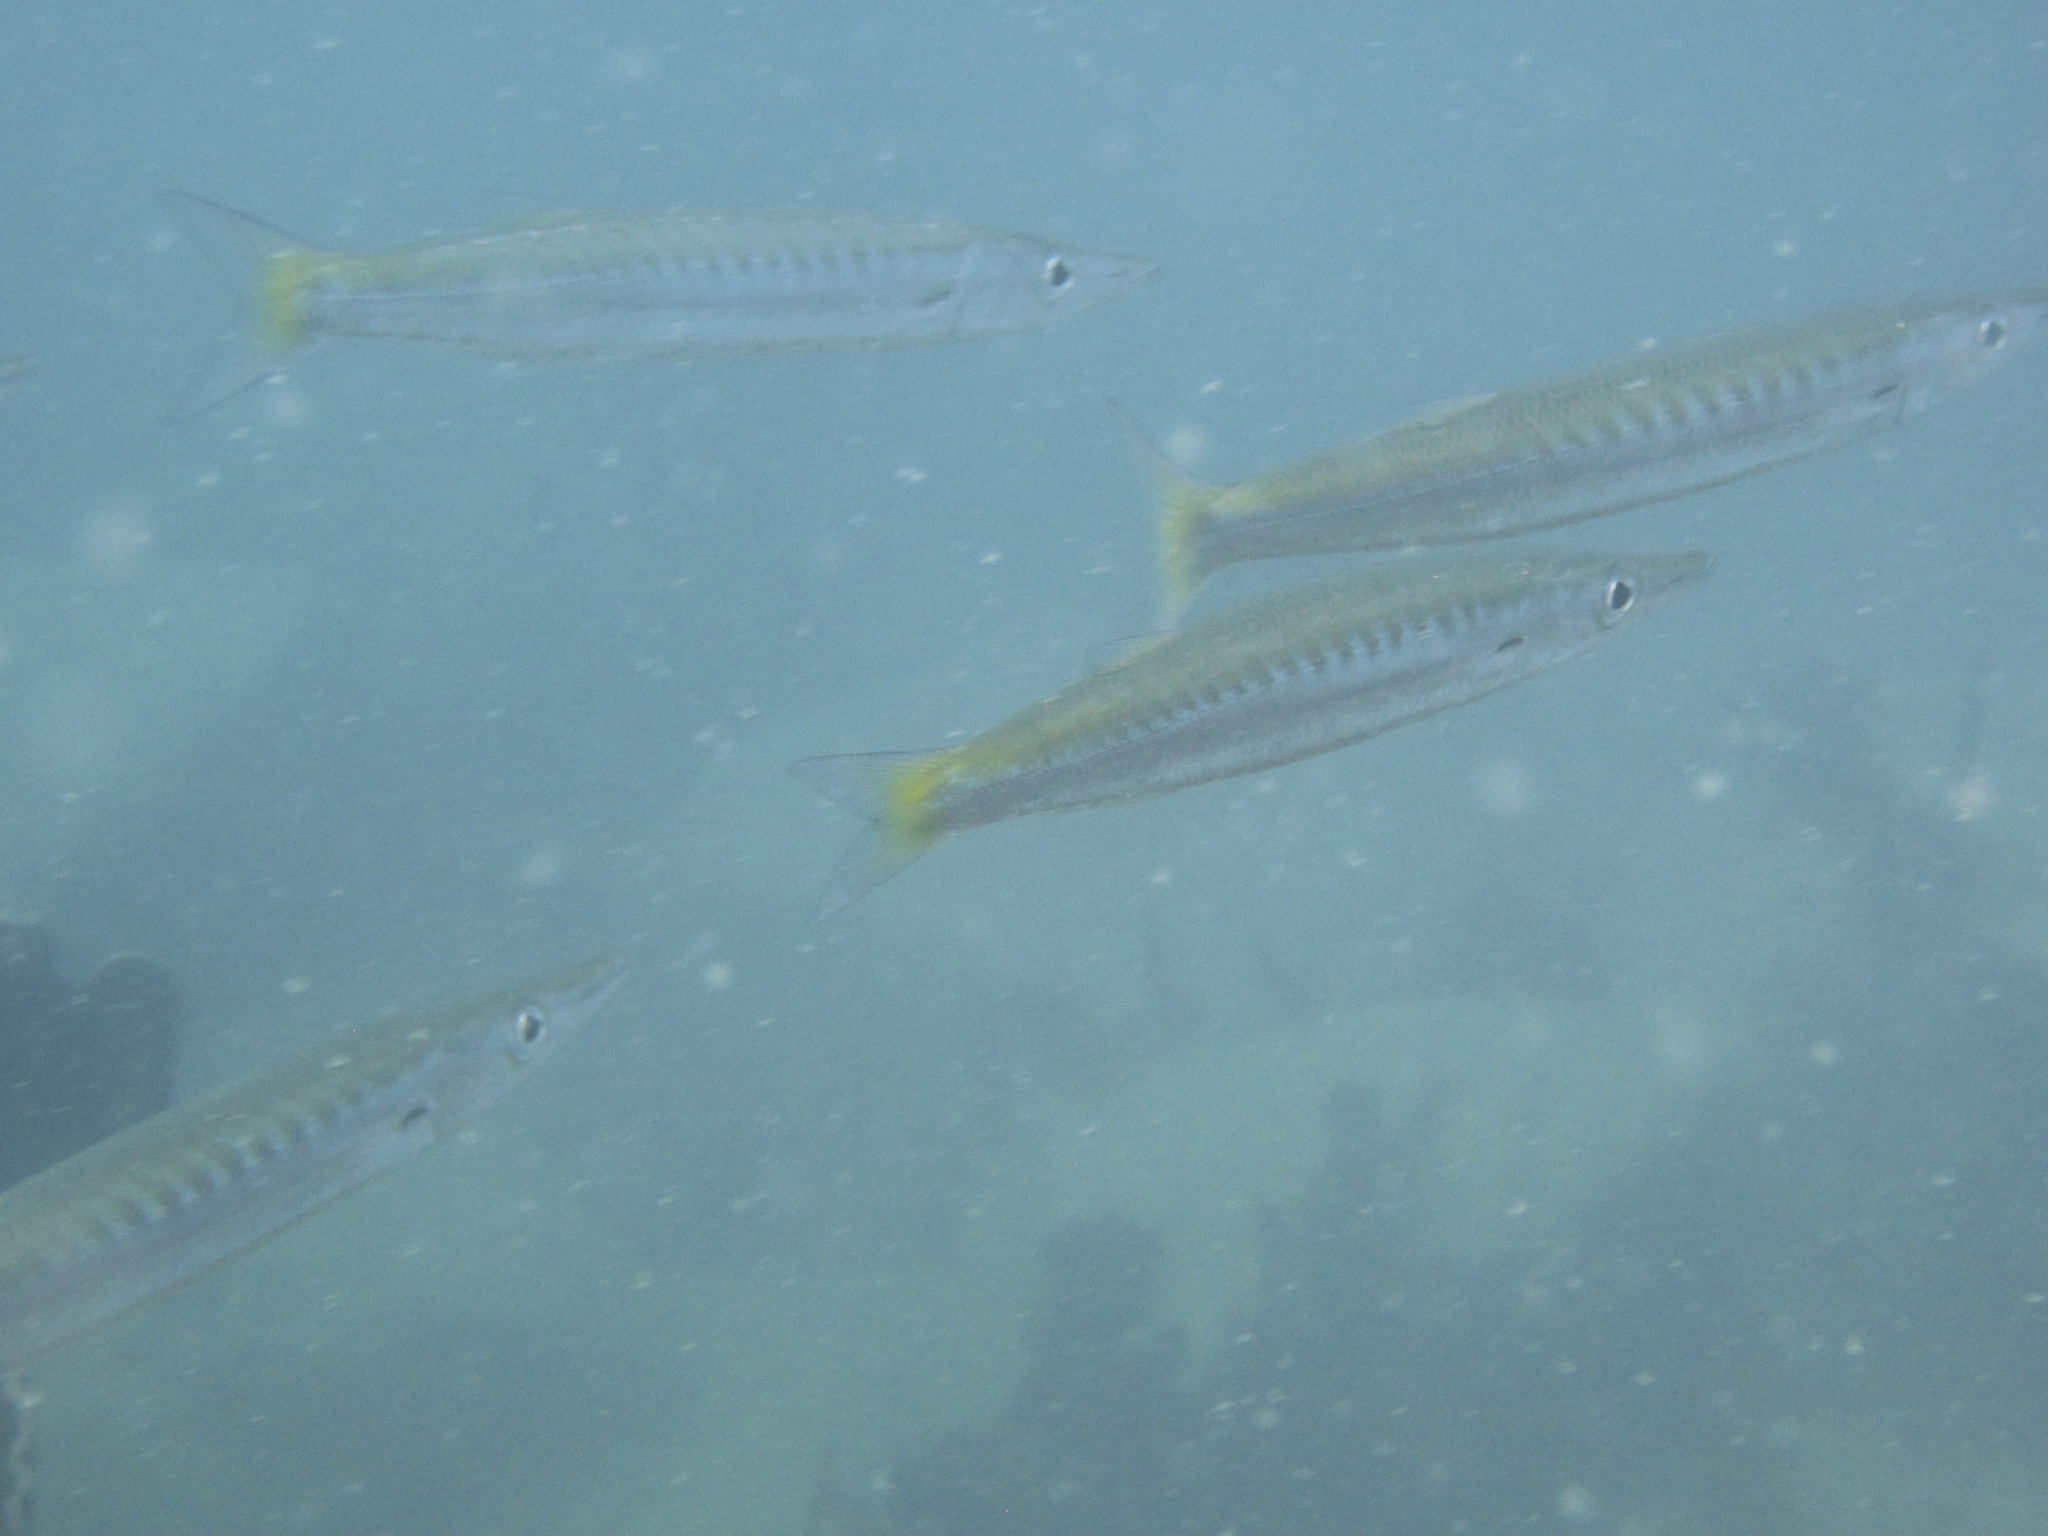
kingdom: Animalia
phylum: Chordata
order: Perciformes
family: Sphyraenidae
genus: Sphyraena
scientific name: Sphyraena obtusata
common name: Obtuse barracuda
